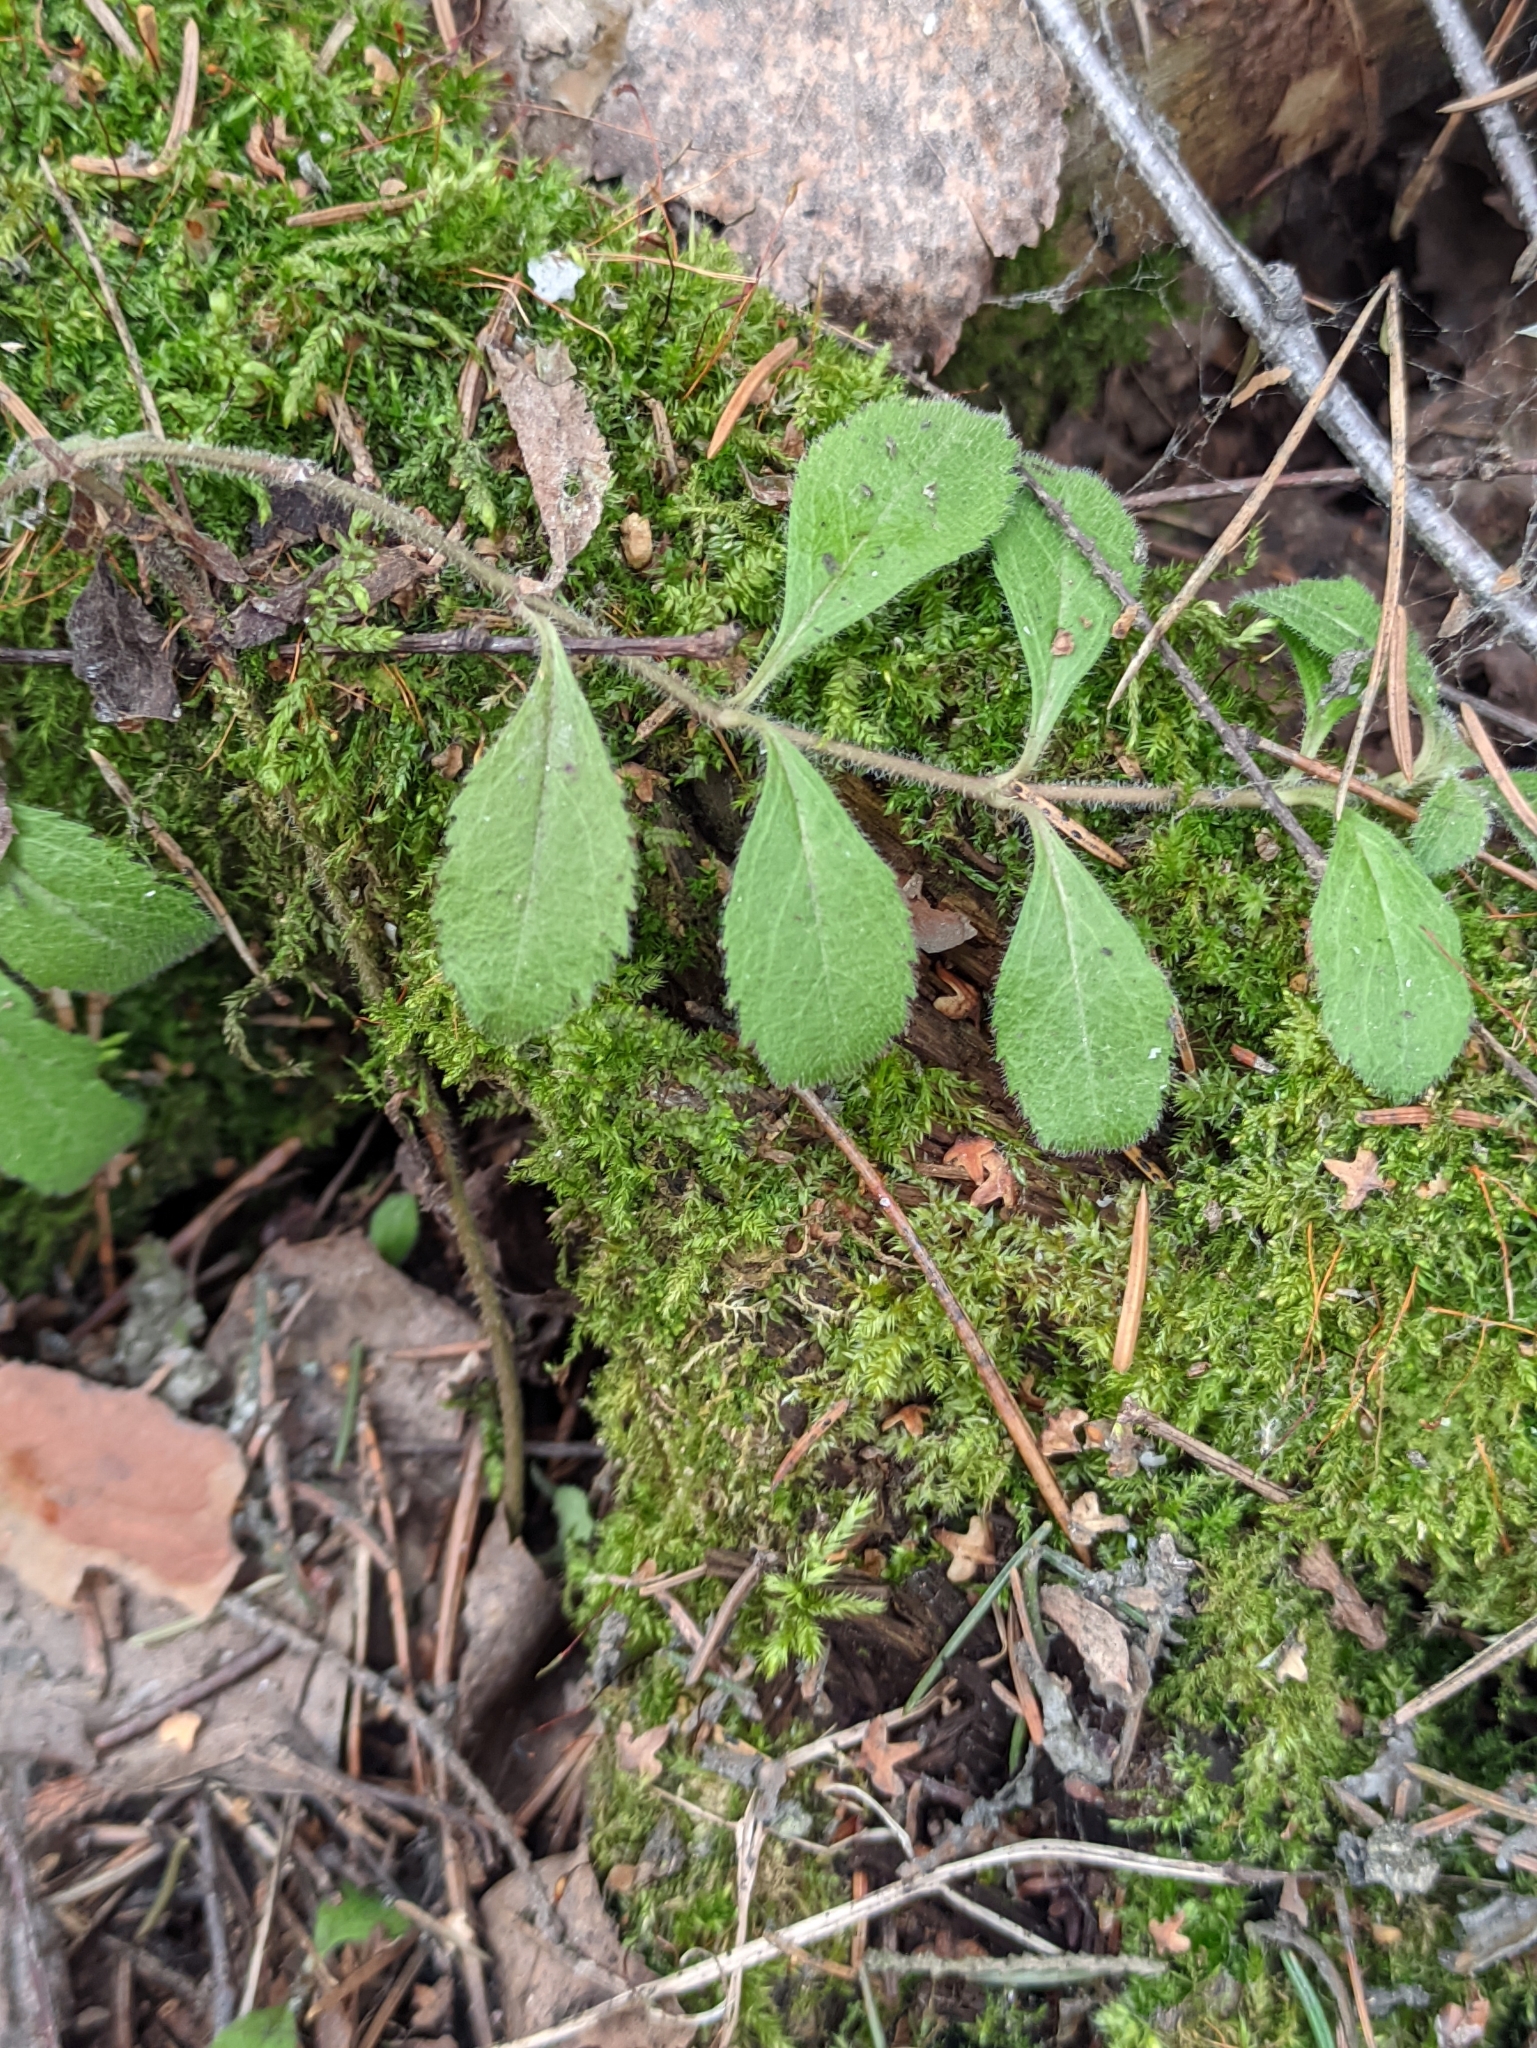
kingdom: Plantae
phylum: Tracheophyta
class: Magnoliopsida
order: Lamiales
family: Plantaginaceae
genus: Veronica
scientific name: Veronica officinalis
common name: Common speedwell
